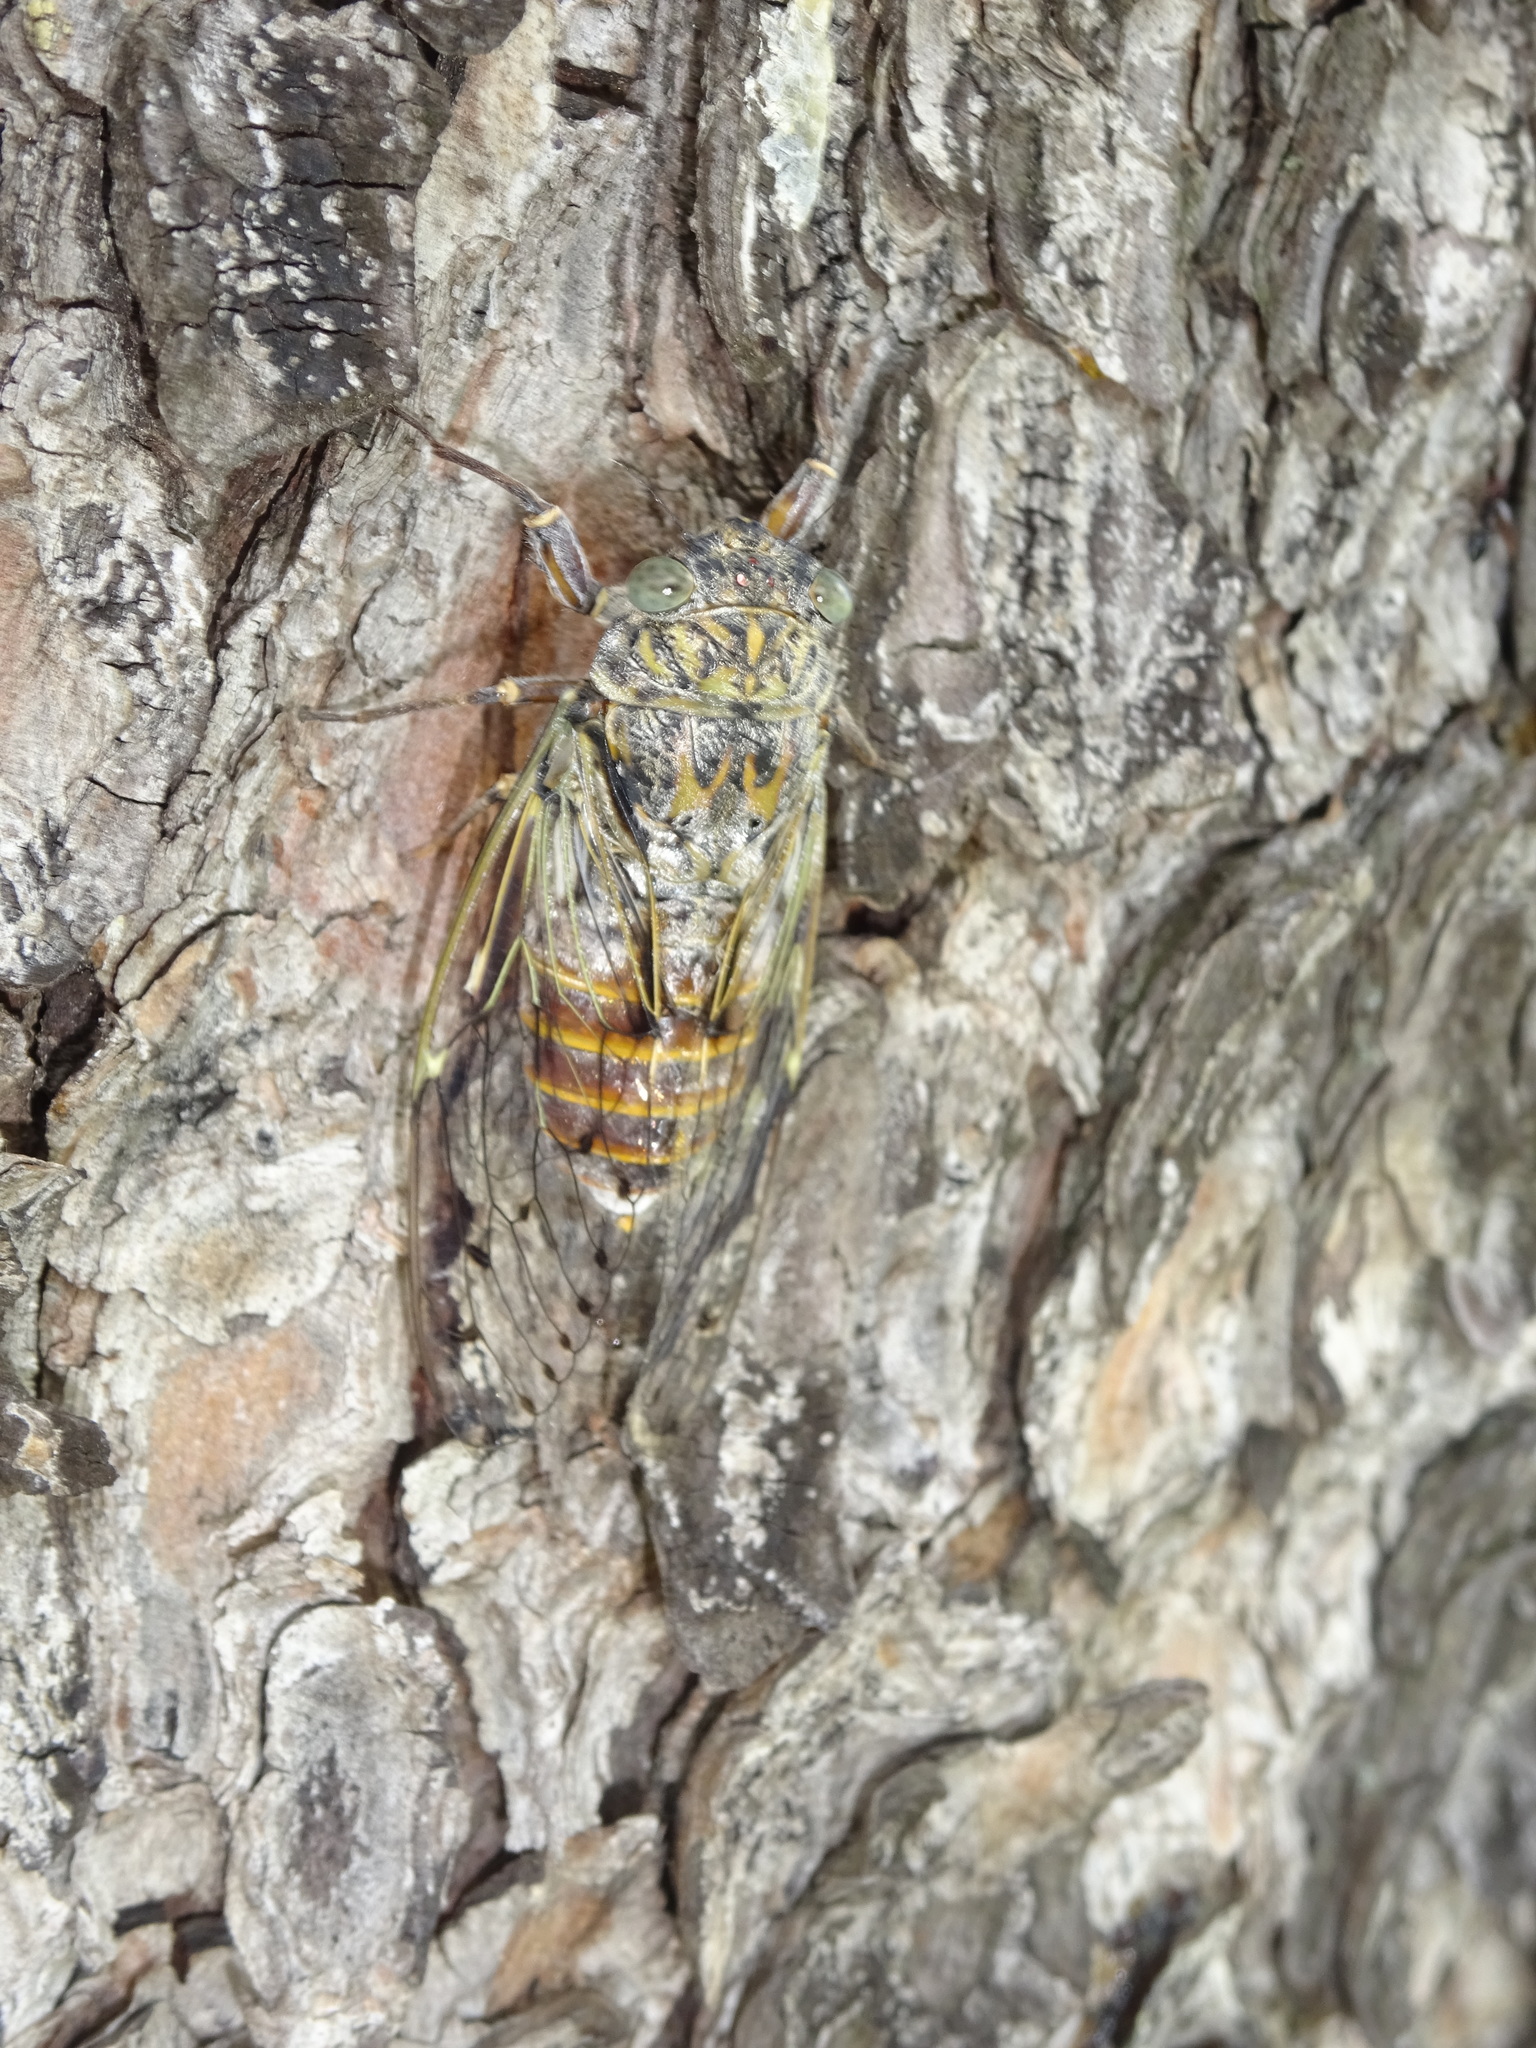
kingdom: Animalia
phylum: Arthropoda
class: Insecta
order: Hemiptera
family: Cicadidae
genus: Cicada
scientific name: Cicada orni
